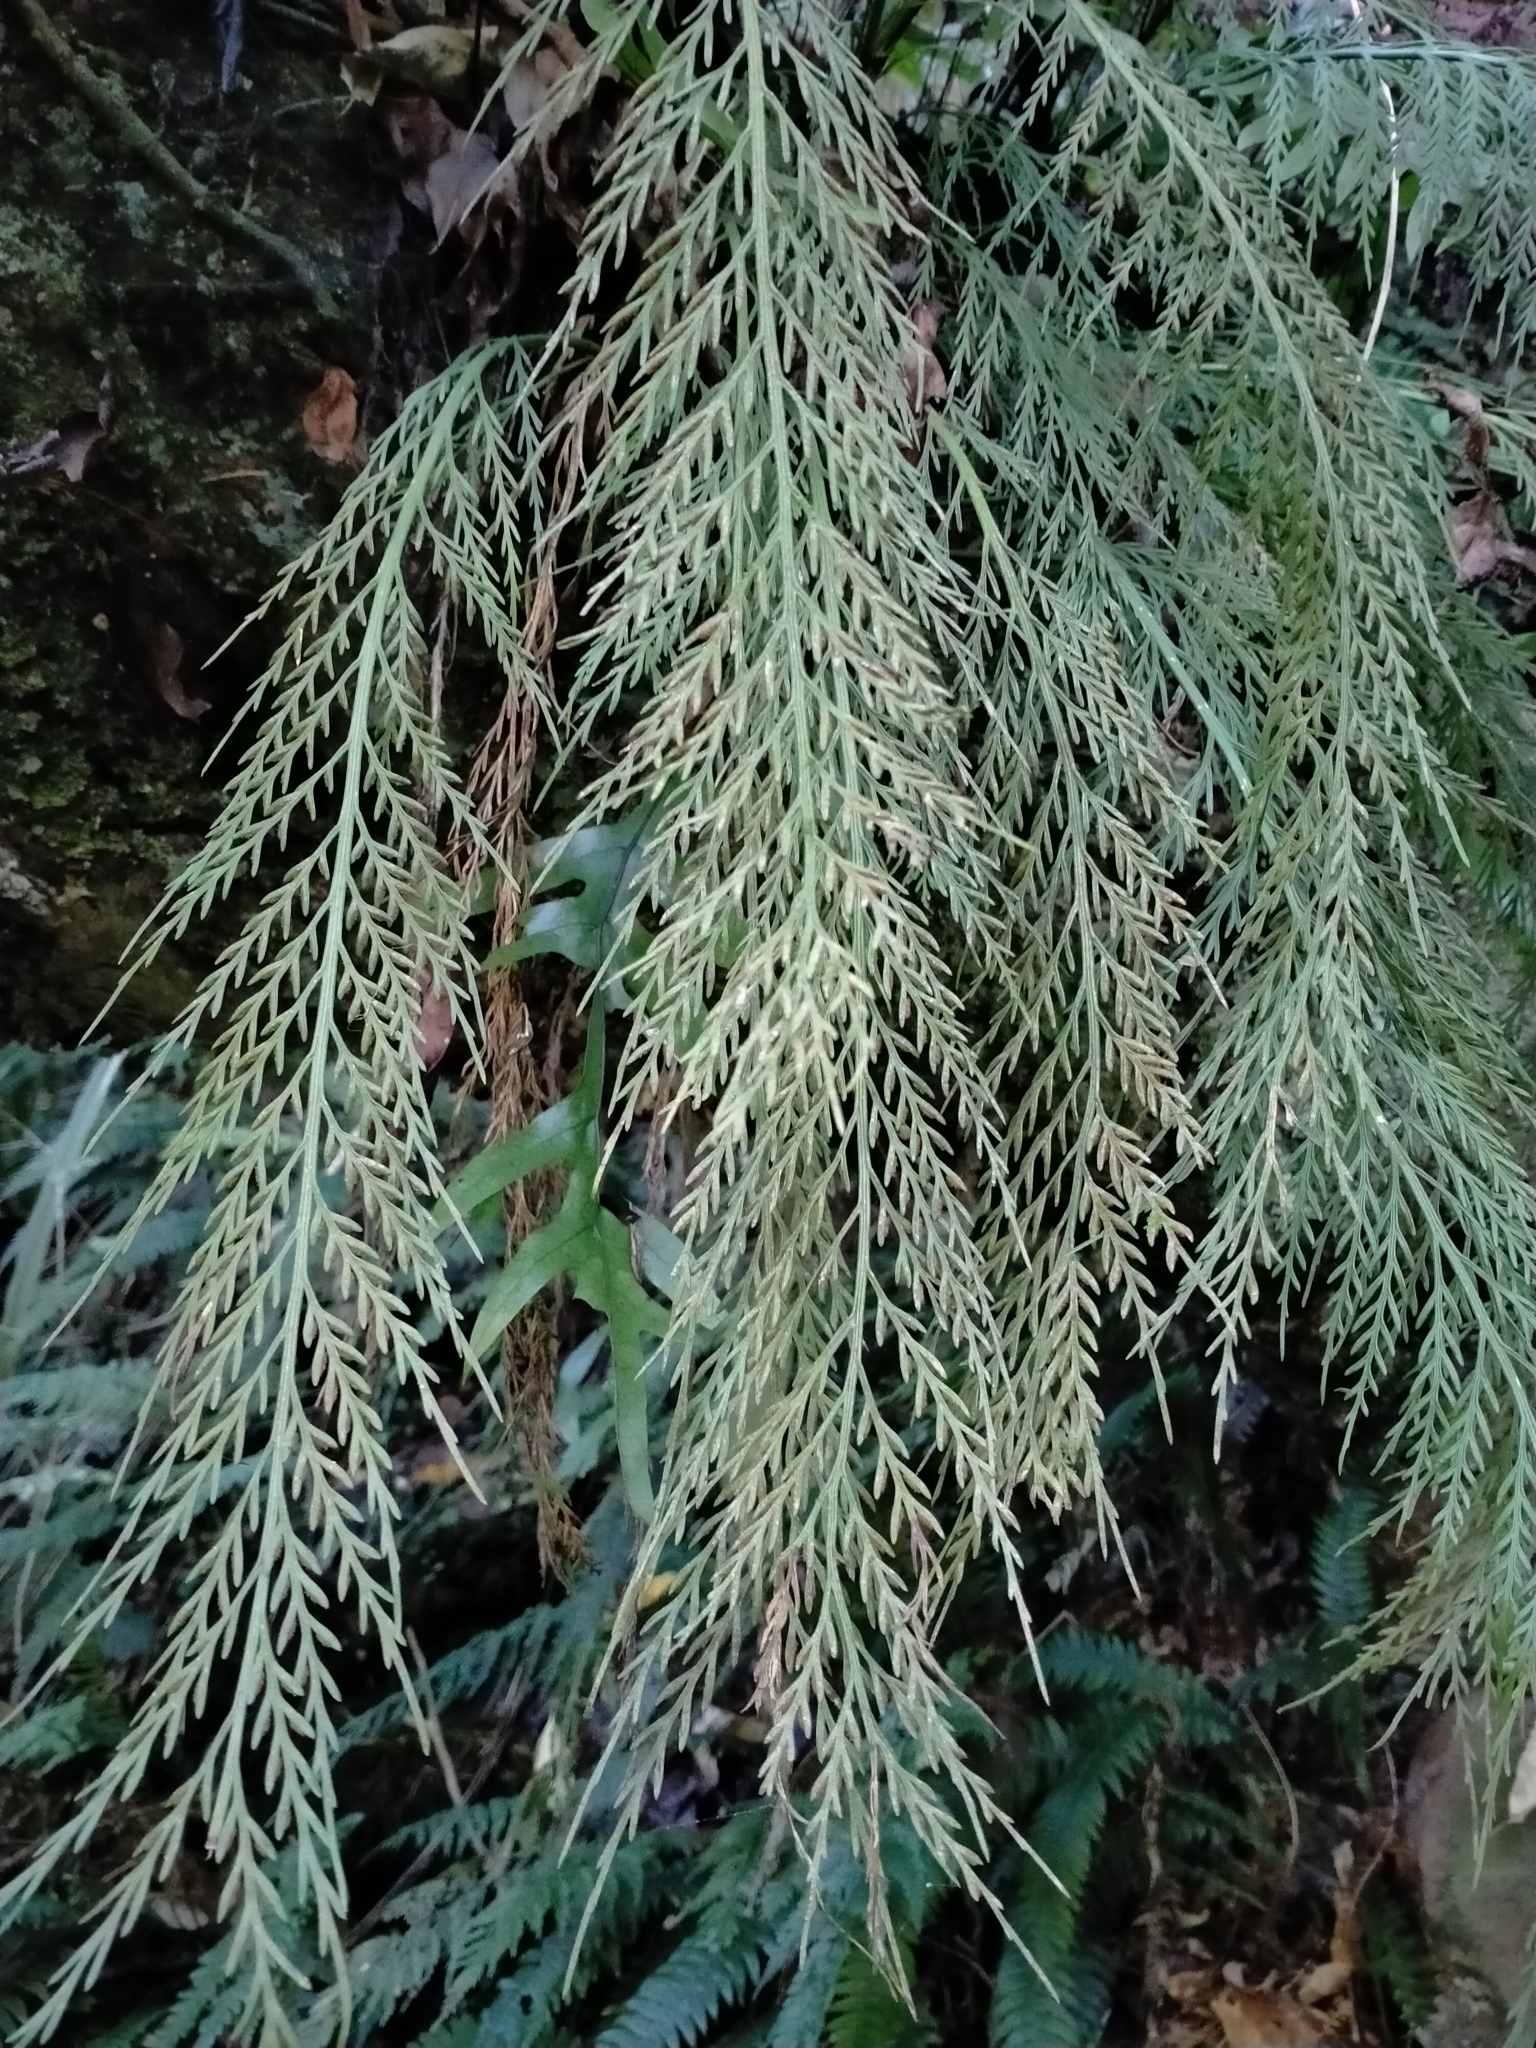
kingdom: Plantae
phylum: Tracheophyta
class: Polypodiopsida
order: Polypodiales
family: Aspleniaceae
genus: Asplenium
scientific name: Asplenium flaccidum
